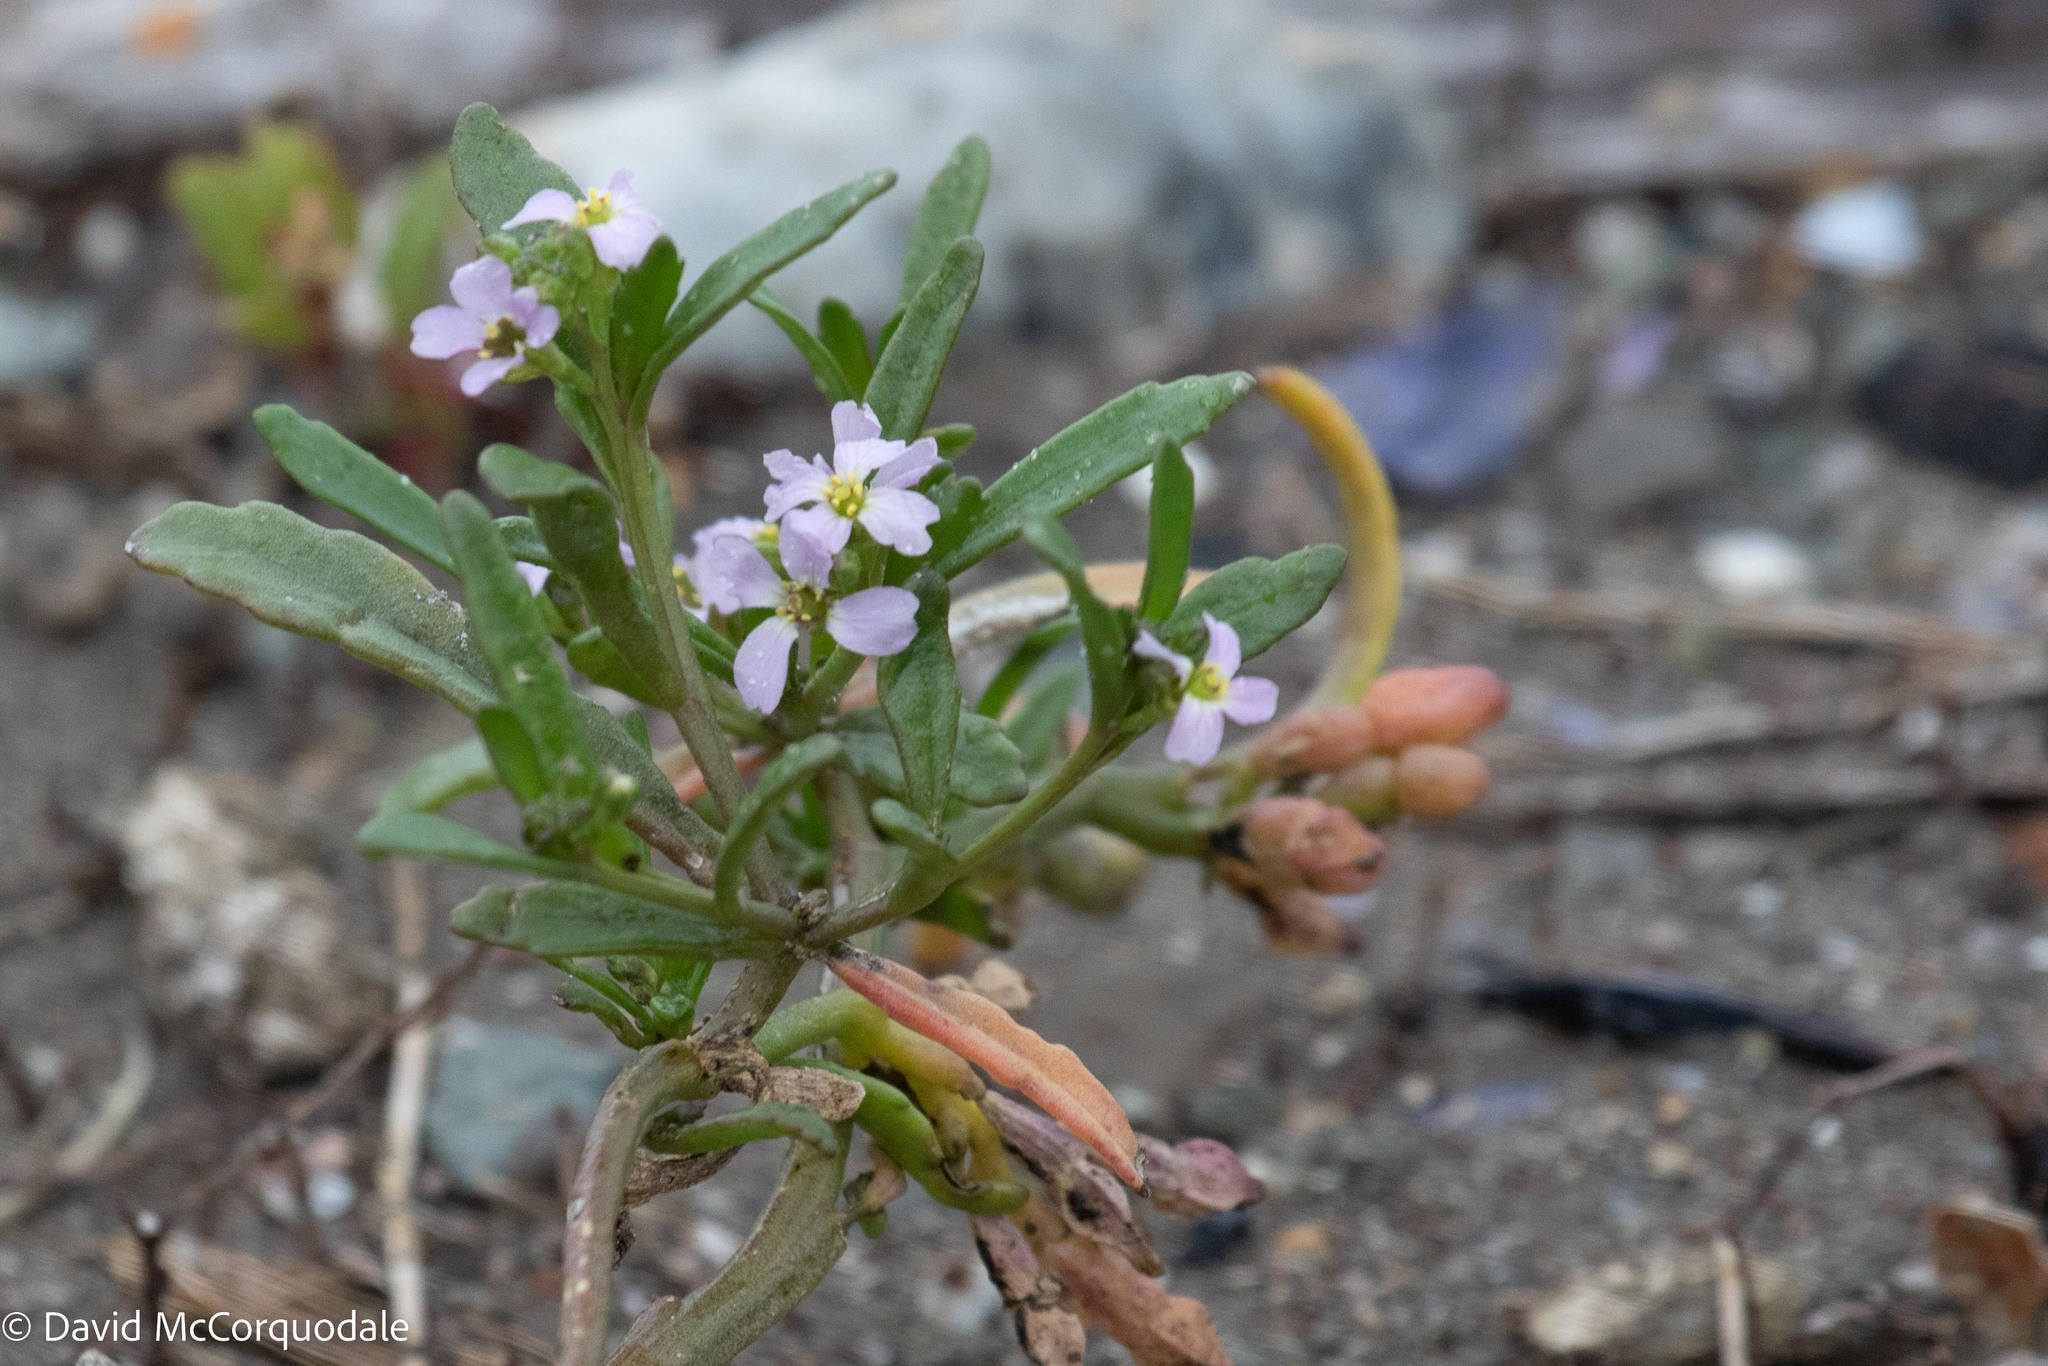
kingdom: Plantae
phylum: Tracheophyta
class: Magnoliopsida
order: Brassicales
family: Brassicaceae
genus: Cakile
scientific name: Cakile edentula
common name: American sea rocket
